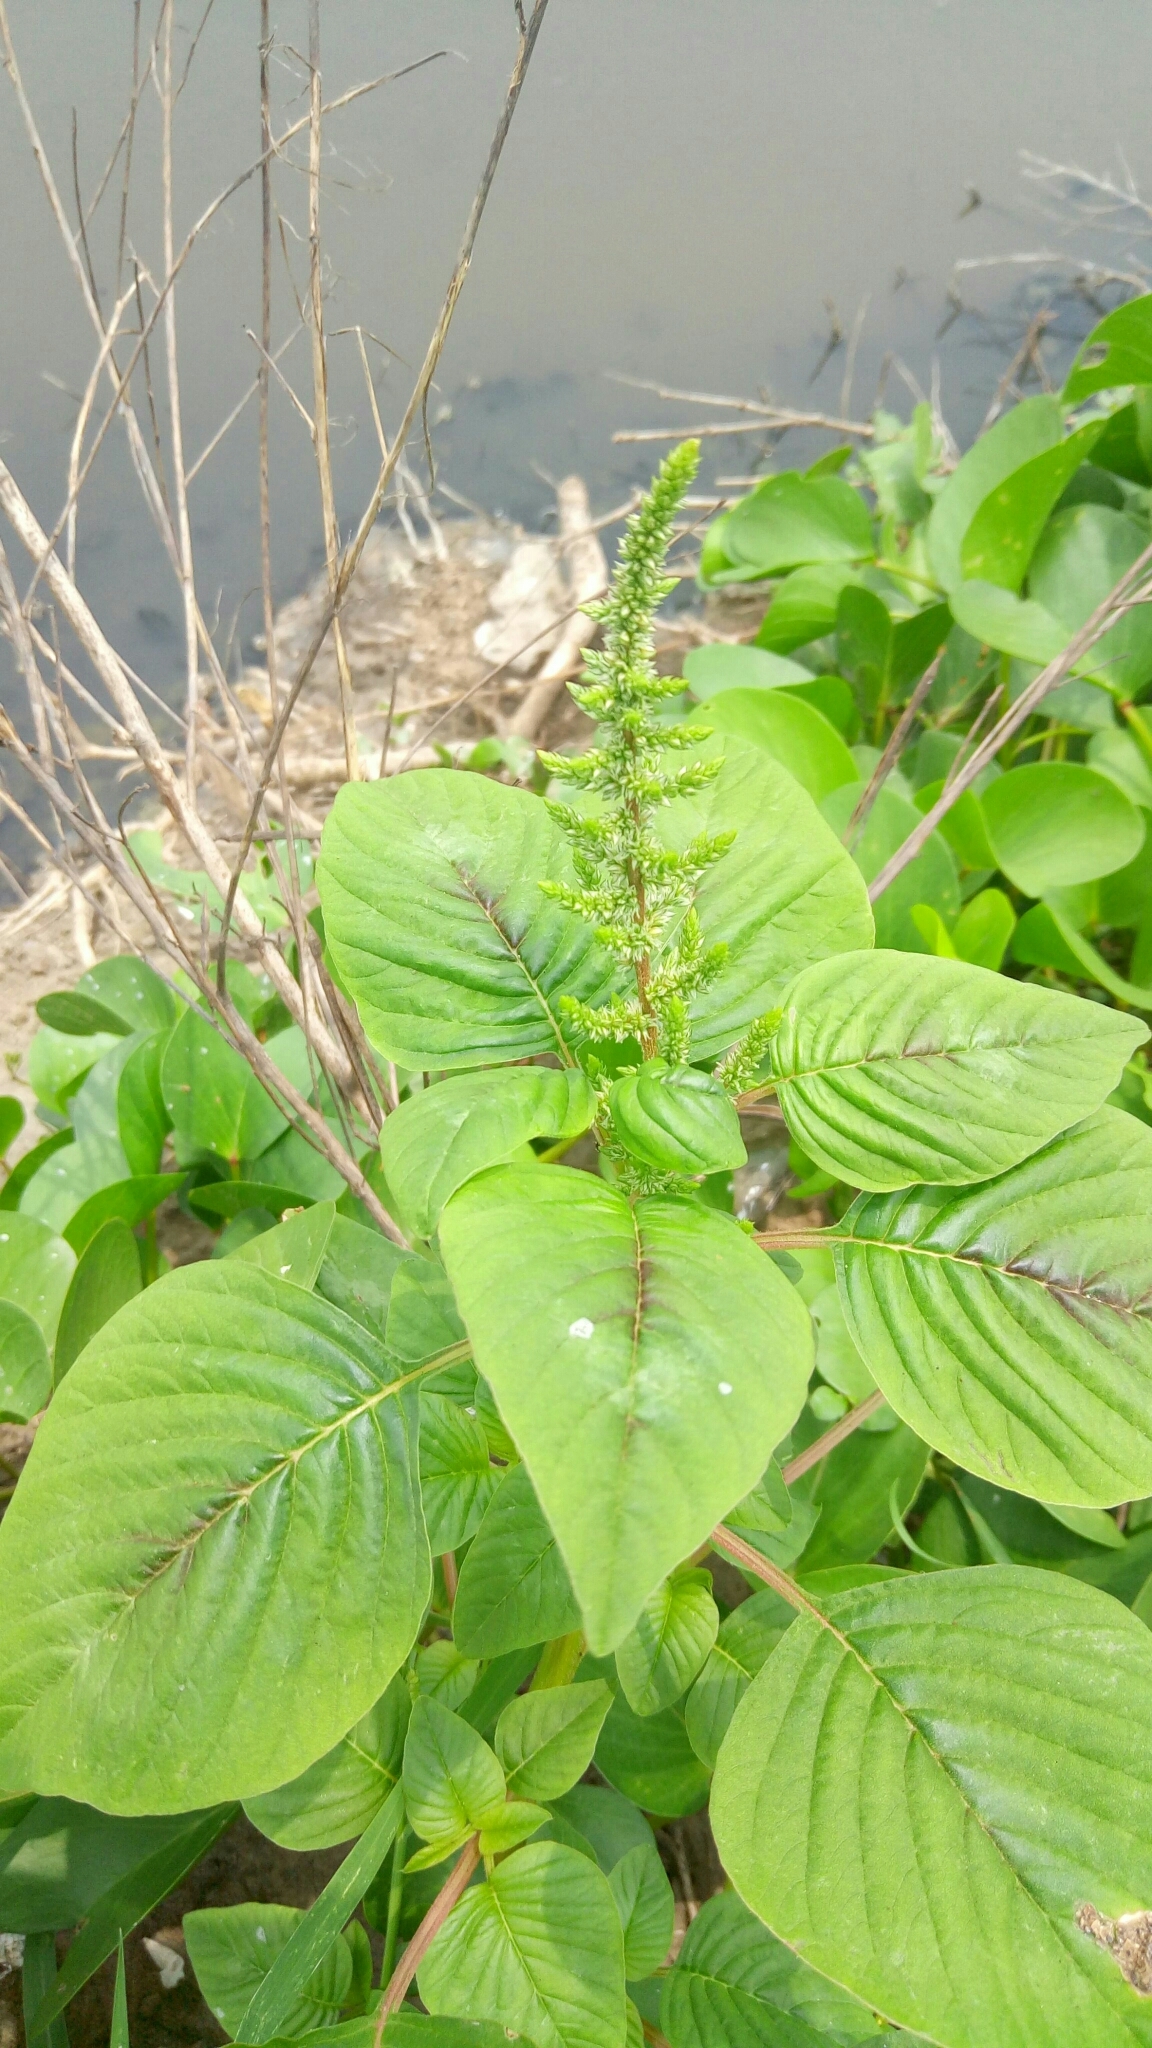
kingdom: Plantae
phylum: Tracheophyta
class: Magnoliopsida
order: Caryophyllales
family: Amaranthaceae
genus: Amaranthus
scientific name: Amaranthus viridis
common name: Slender amaranth
